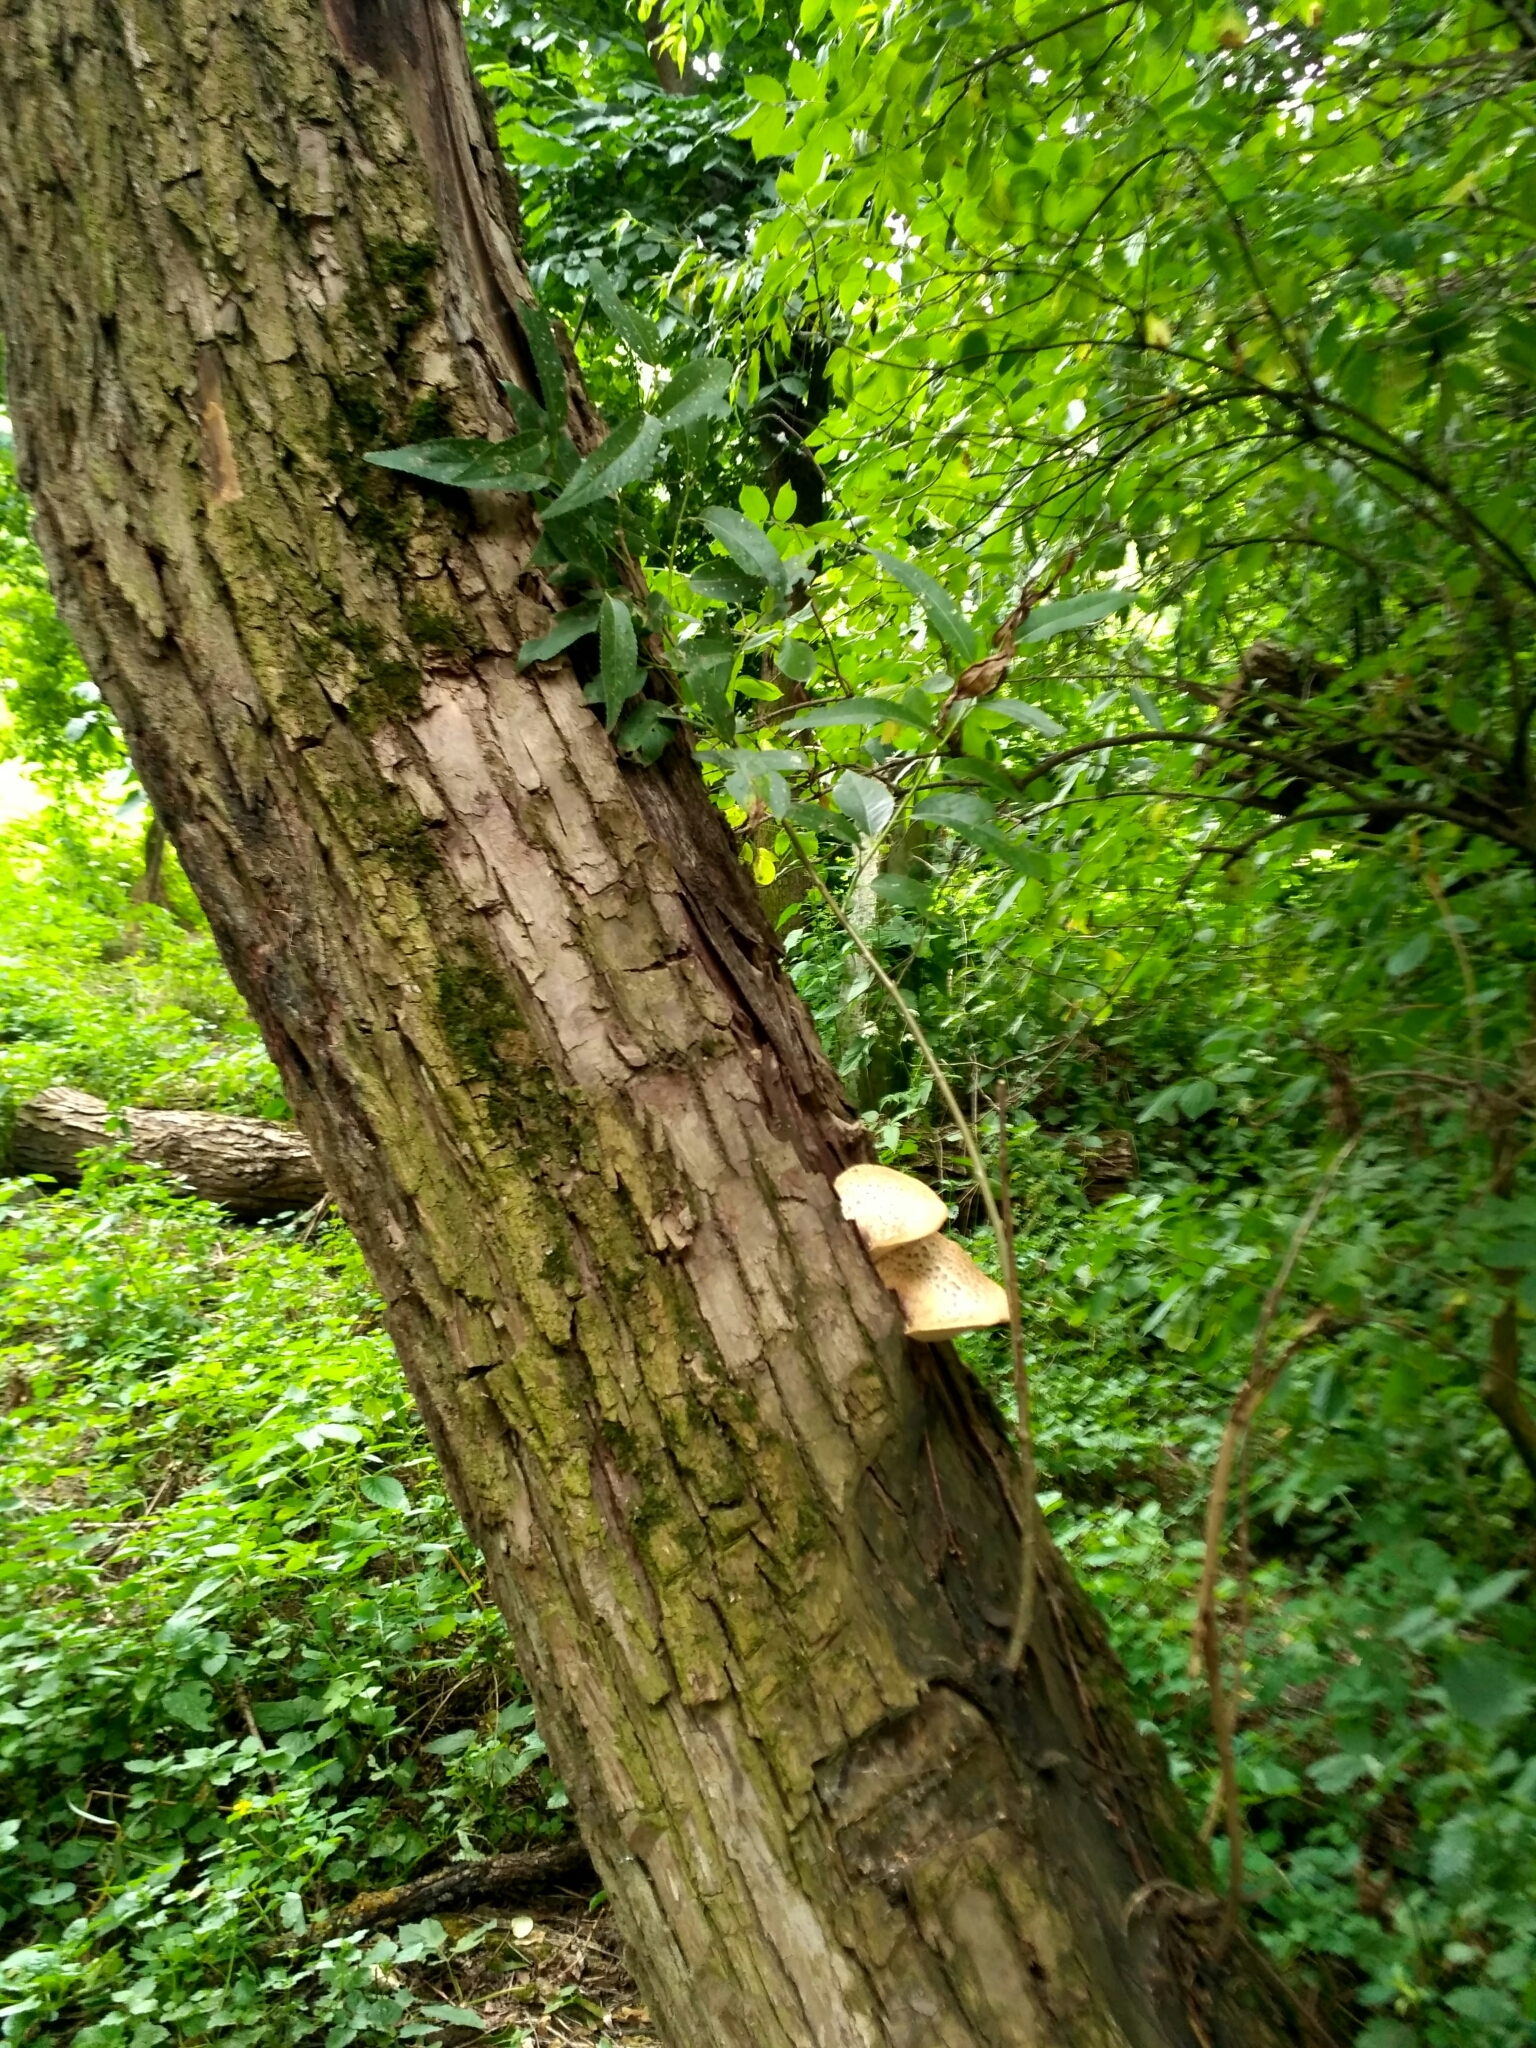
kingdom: Fungi
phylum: Basidiomycota
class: Agaricomycetes
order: Polyporales
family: Polyporaceae
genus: Cerioporus
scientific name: Cerioporus squamosus
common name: Dryad's saddle
